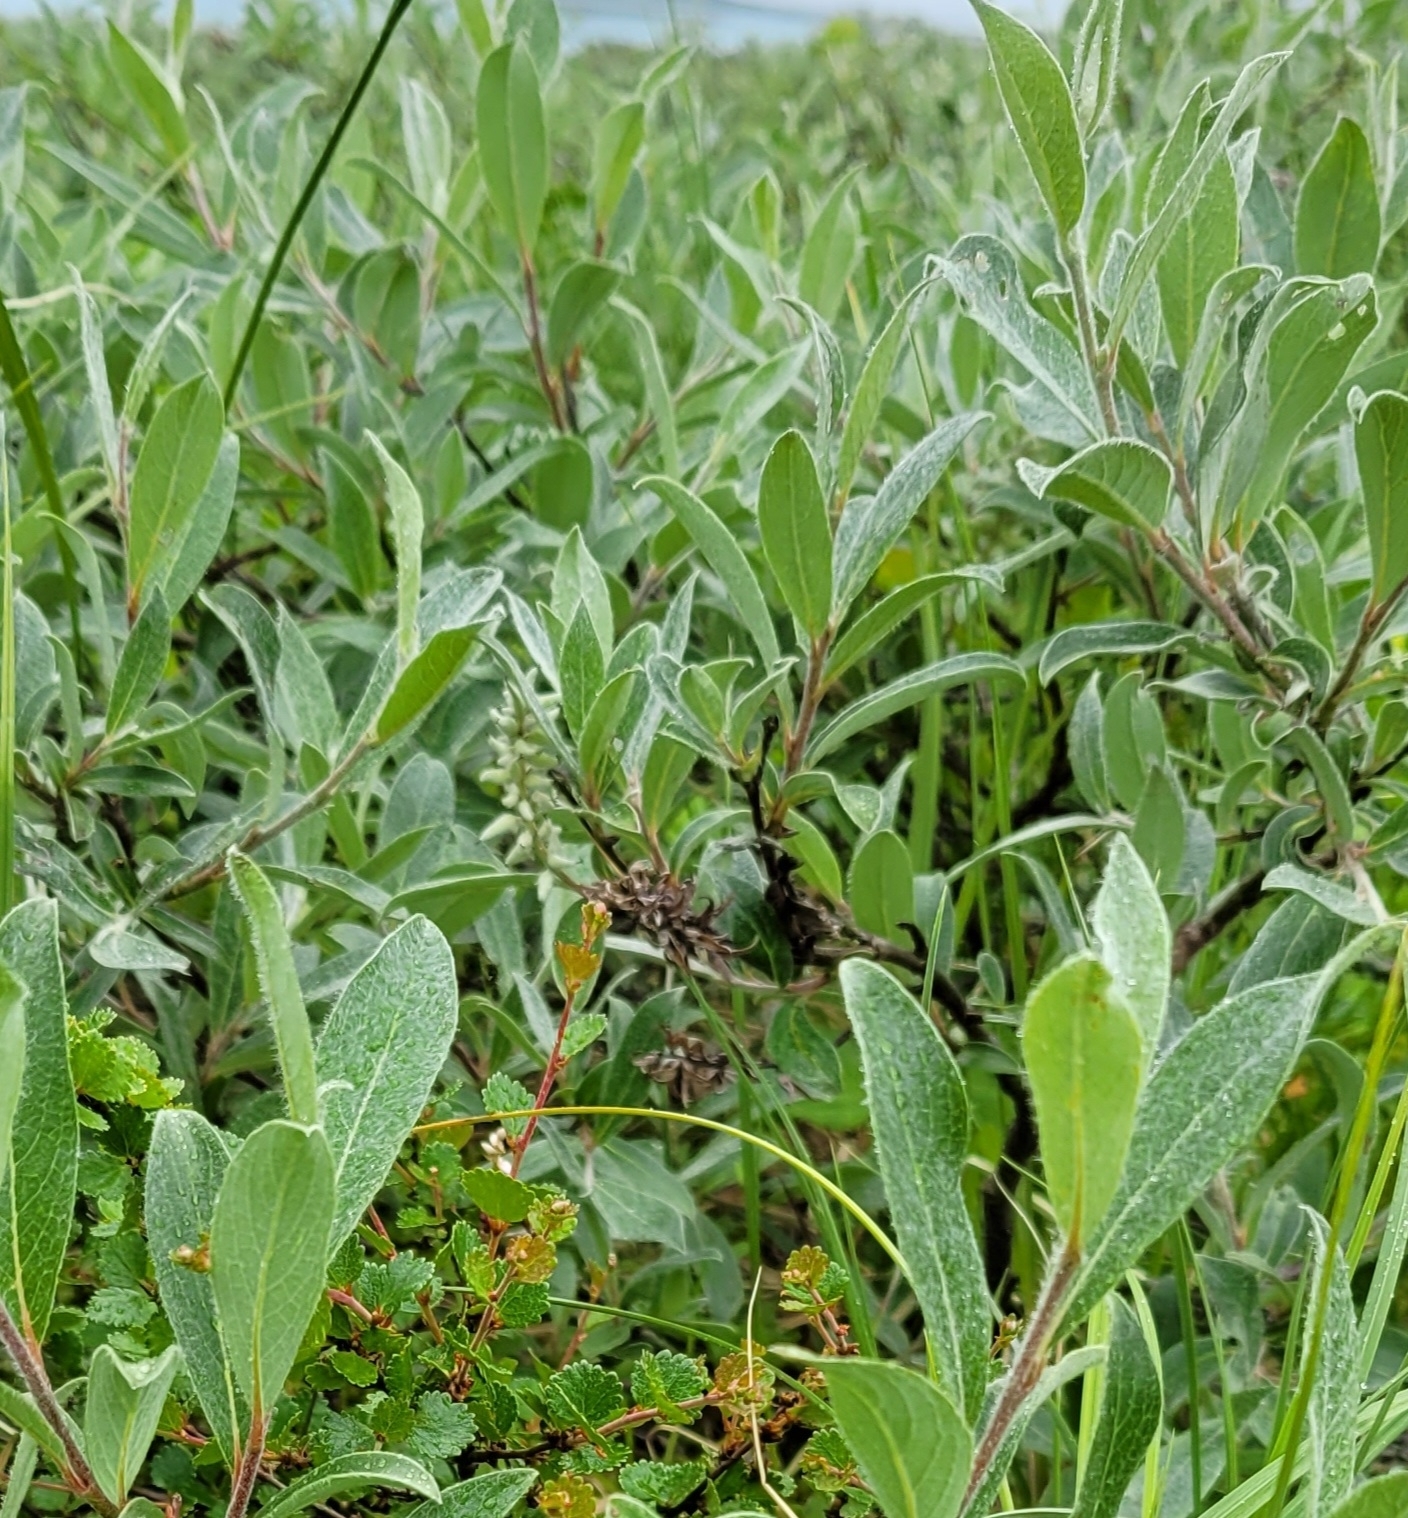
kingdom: Plantae
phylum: Tracheophyta
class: Magnoliopsida
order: Malpighiales
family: Salicaceae
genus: Salix
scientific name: Salix lanata
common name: Woolly willow
